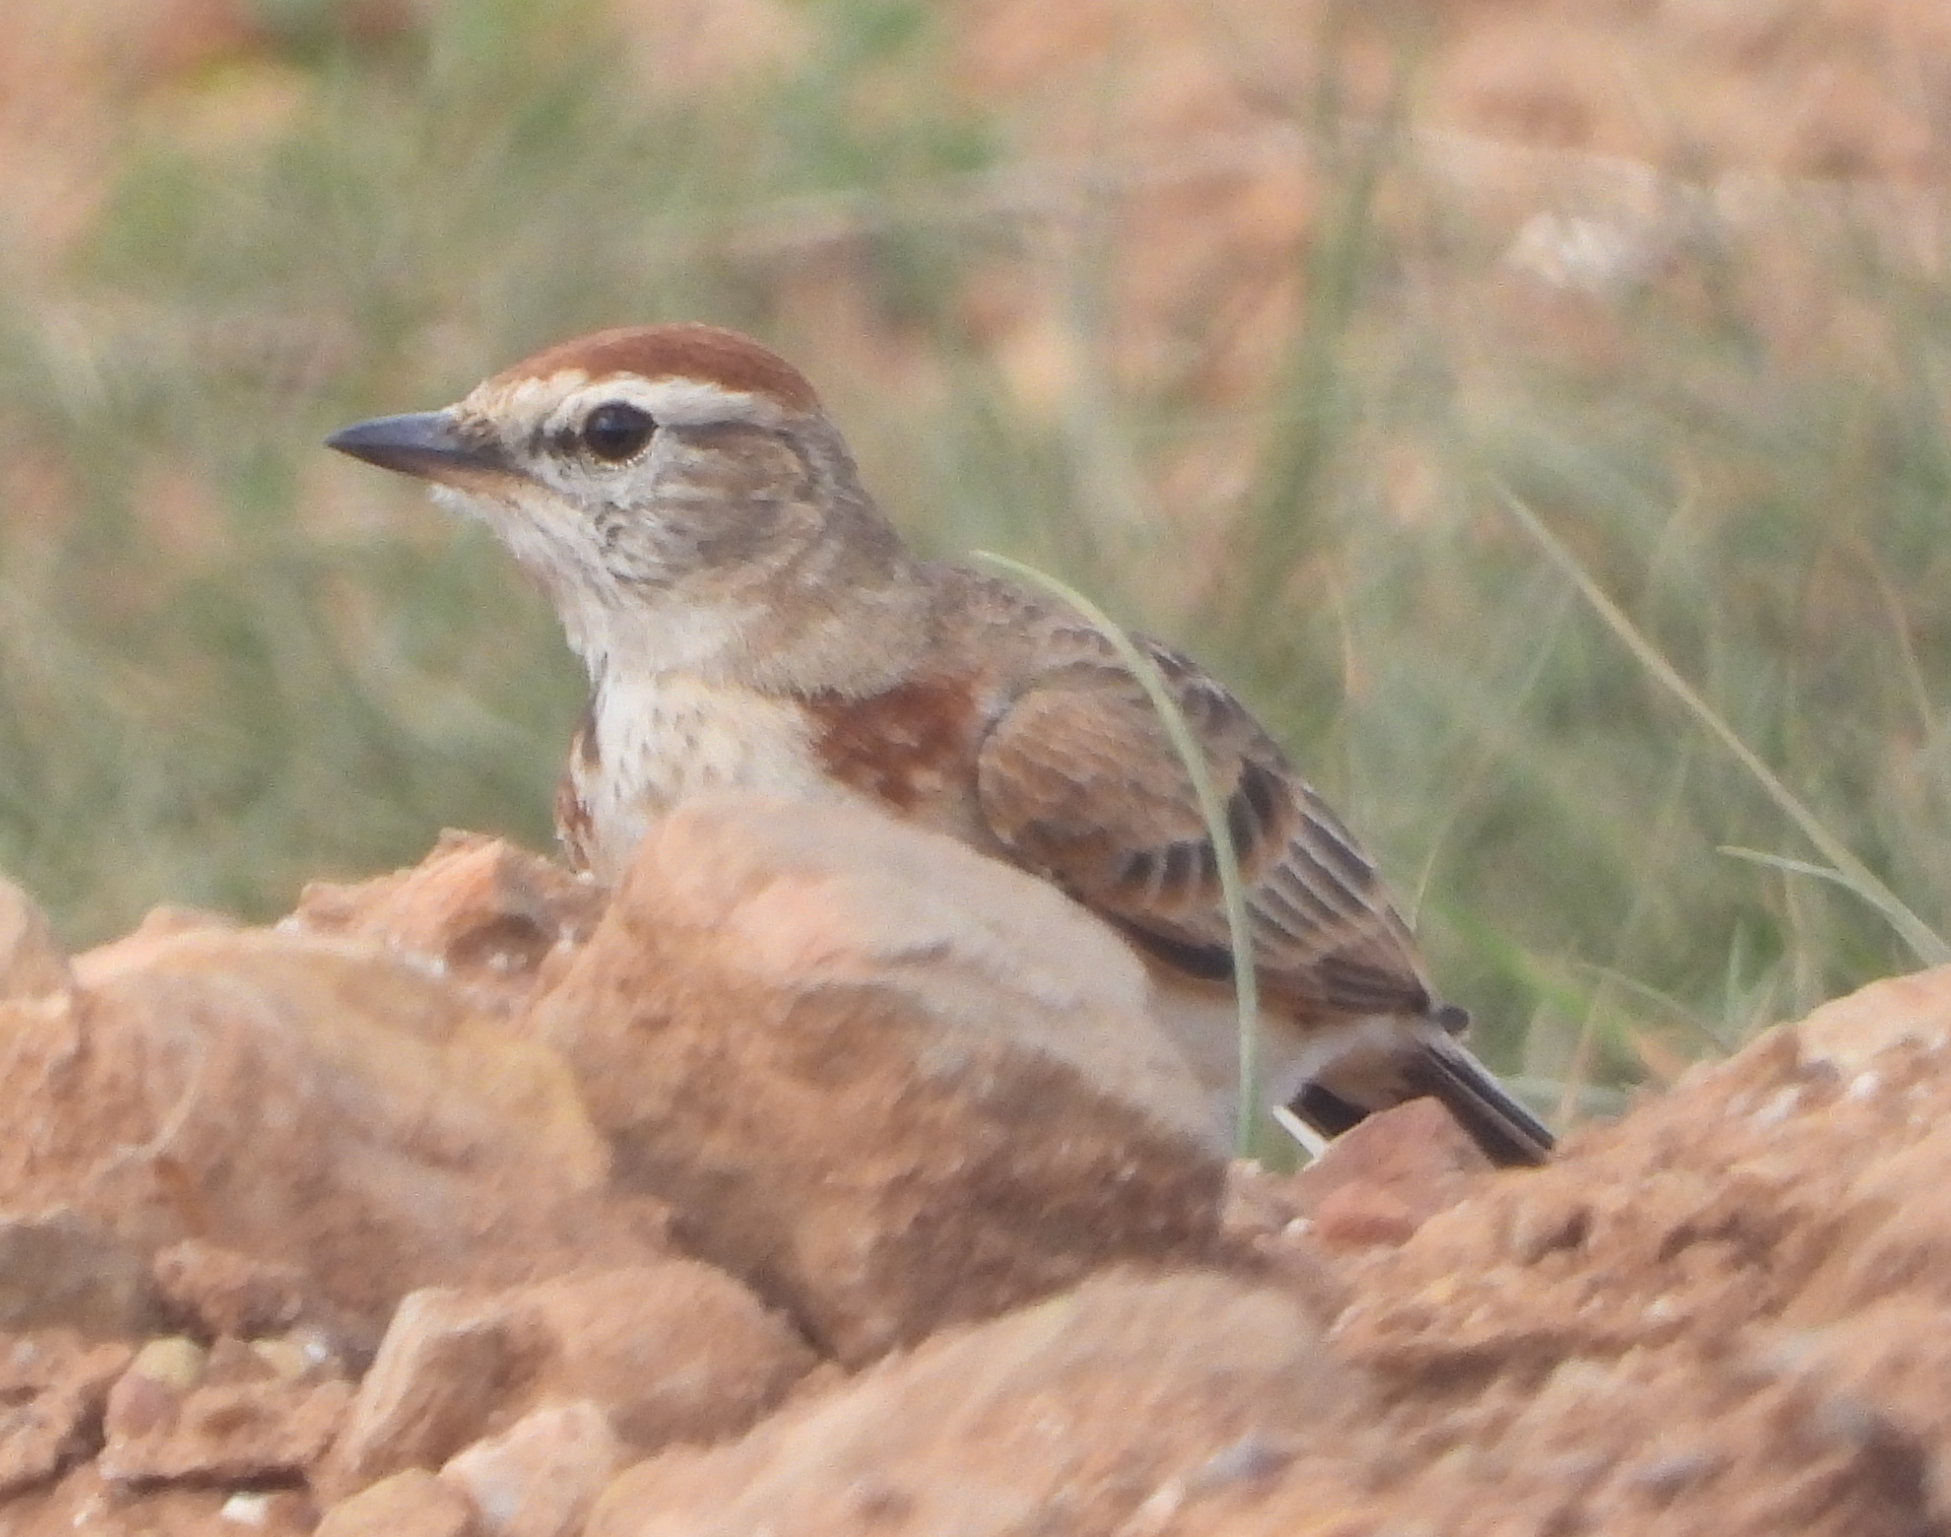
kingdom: Animalia
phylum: Chordata
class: Aves
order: Passeriformes
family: Alaudidae
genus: Calandrella
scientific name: Calandrella cinerea
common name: Red-capped lark
